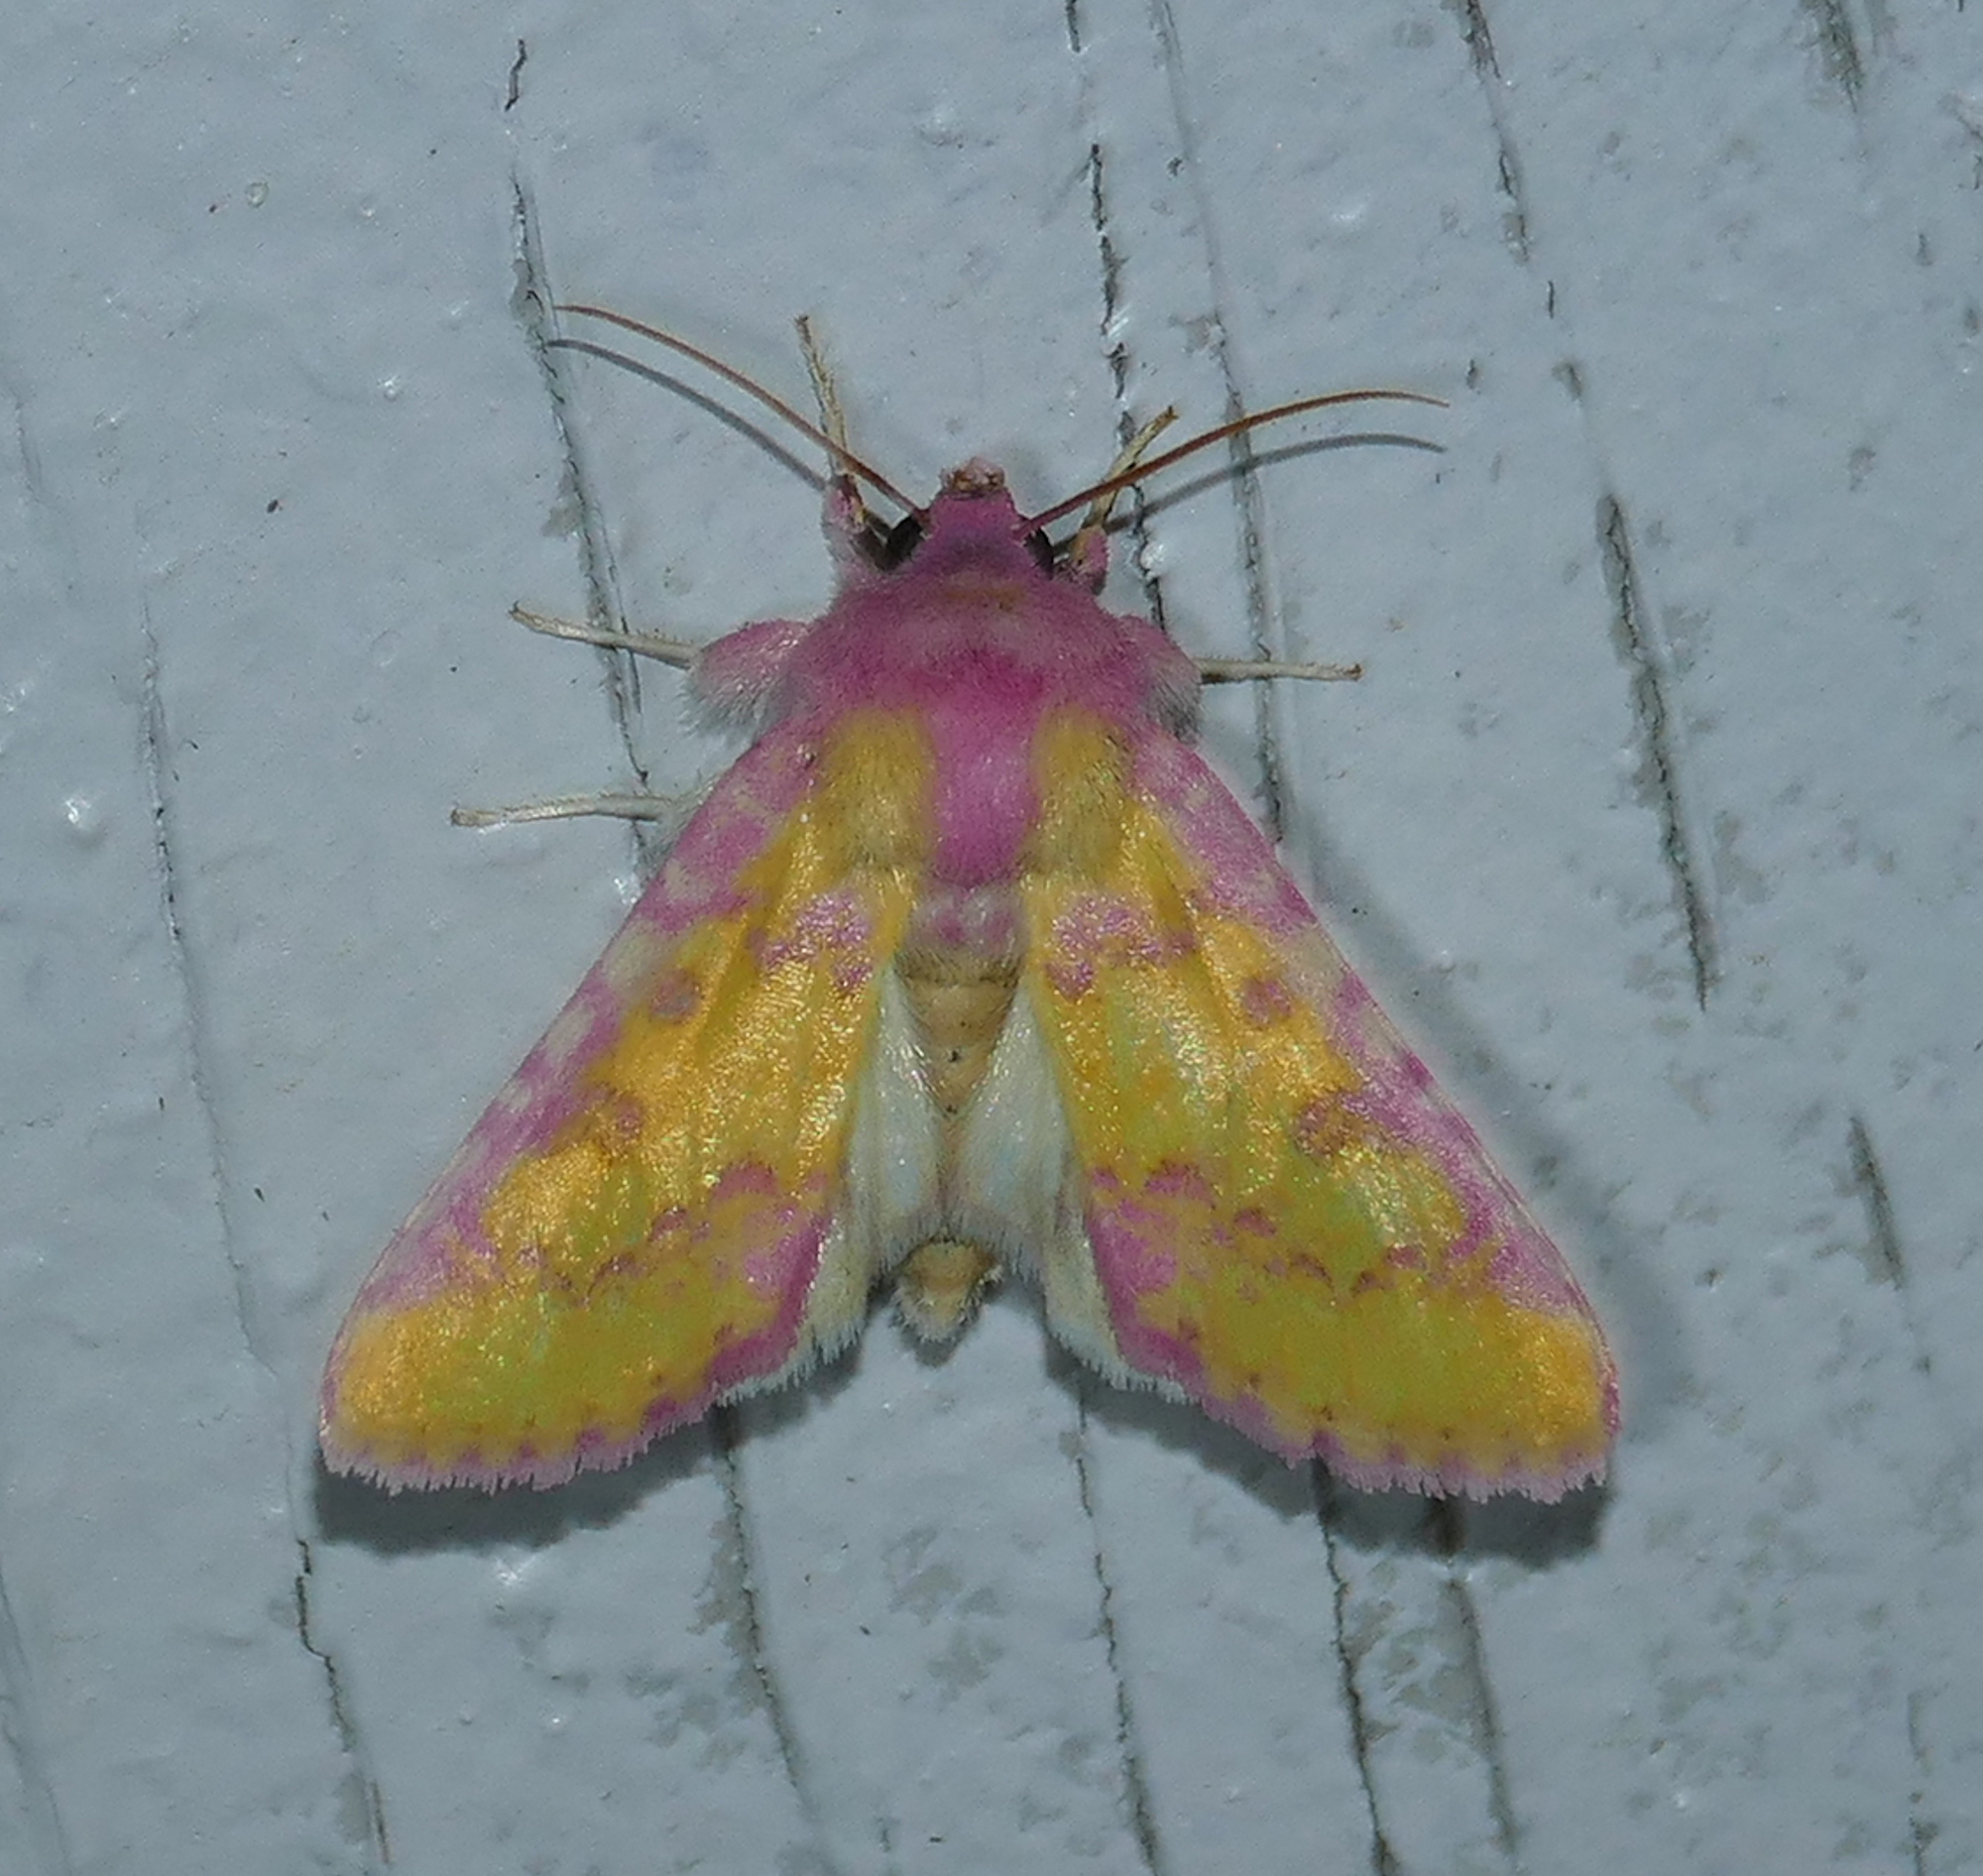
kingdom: Animalia
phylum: Arthropoda
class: Insecta
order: Lepidoptera
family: Noctuidae
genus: Psectrotarsia
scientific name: Psectrotarsia suavis
